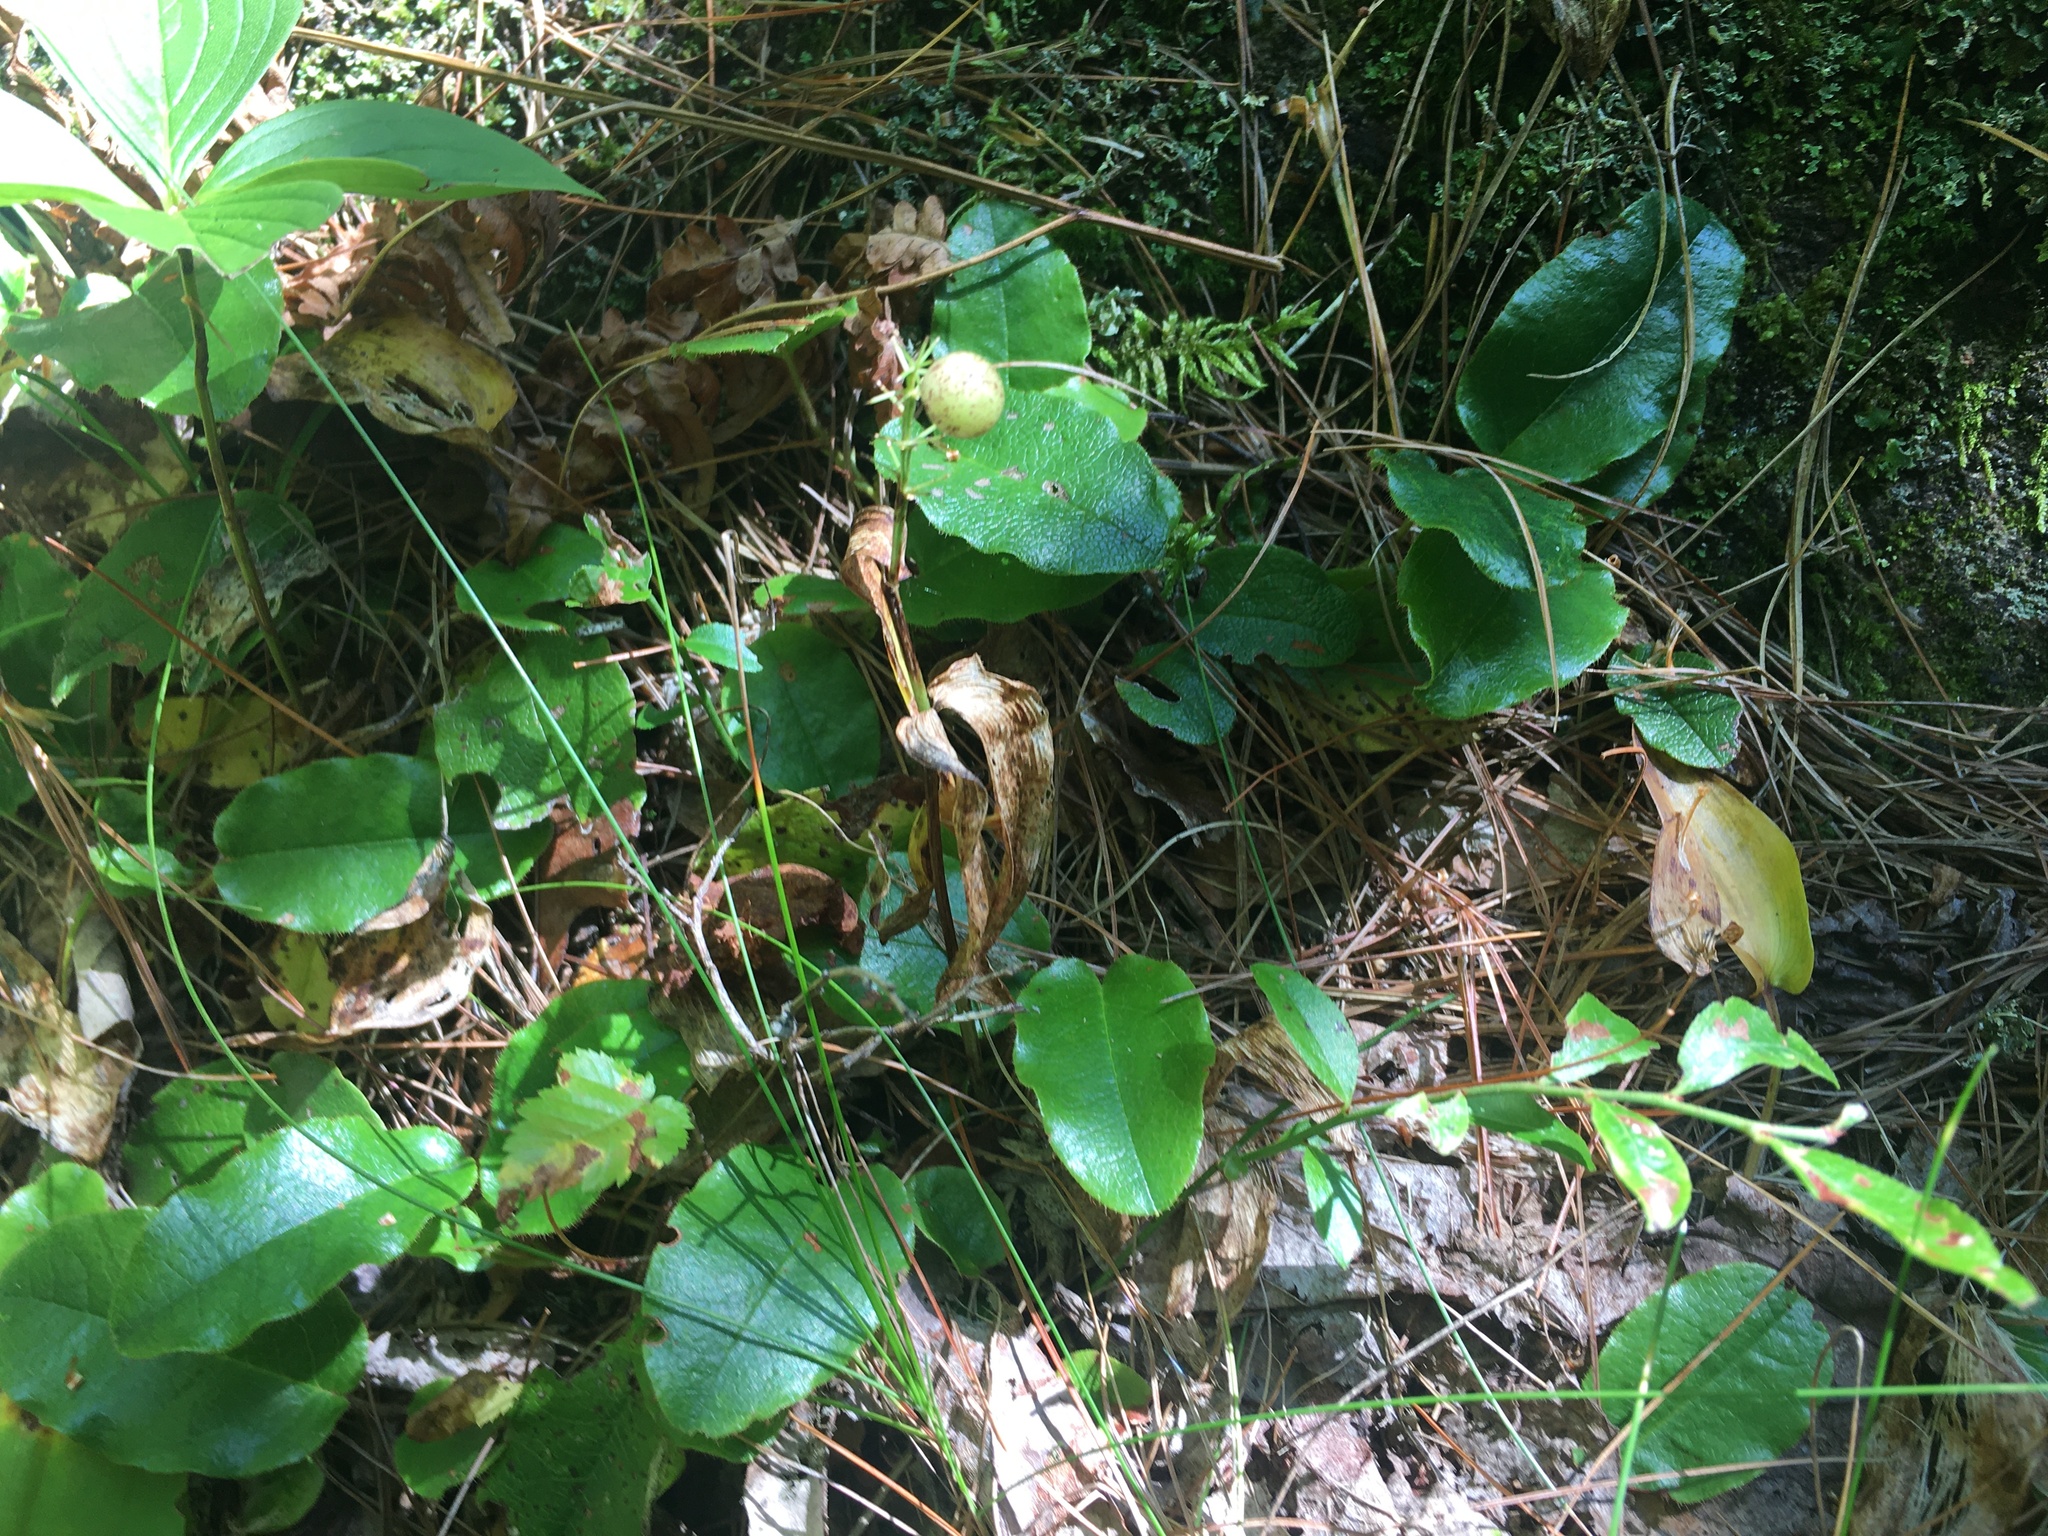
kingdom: Plantae
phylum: Tracheophyta
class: Magnoliopsida
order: Ericales
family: Ericaceae
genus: Epigaea
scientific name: Epigaea repens
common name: Gravelroot
